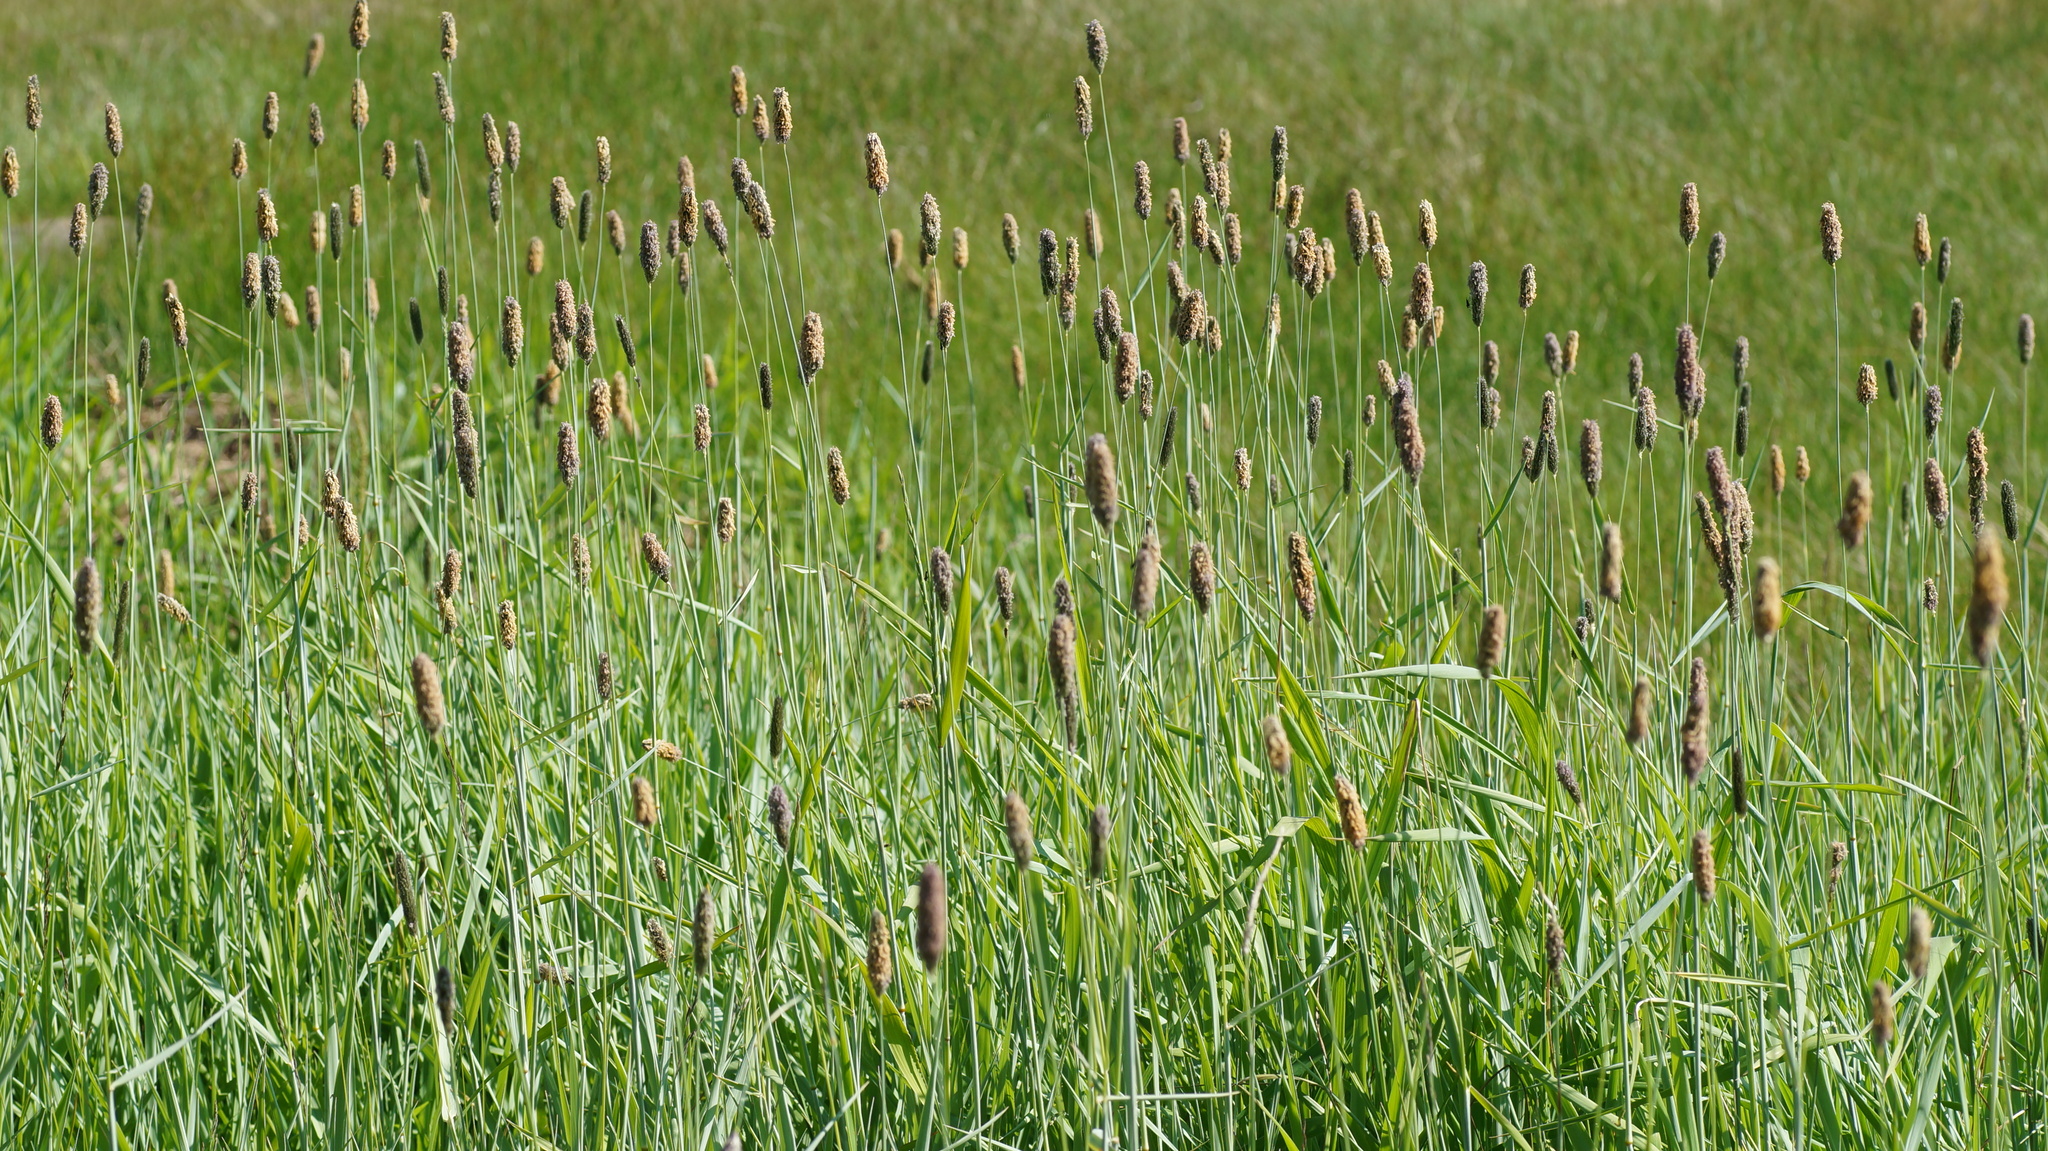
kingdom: Plantae
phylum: Tracheophyta
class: Liliopsida
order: Poales
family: Poaceae
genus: Alopecurus
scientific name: Alopecurus pratensis
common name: Meadow foxtail
